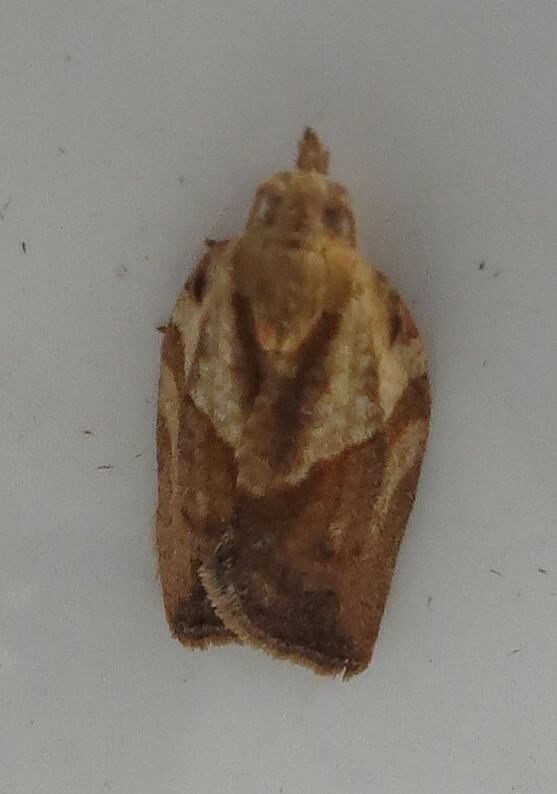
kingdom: Animalia
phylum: Arthropoda
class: Insecta
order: Lepidoptera
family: Tortricidae
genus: Epiphyas
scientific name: Epiphyas postvittana
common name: Light brown apple moth
